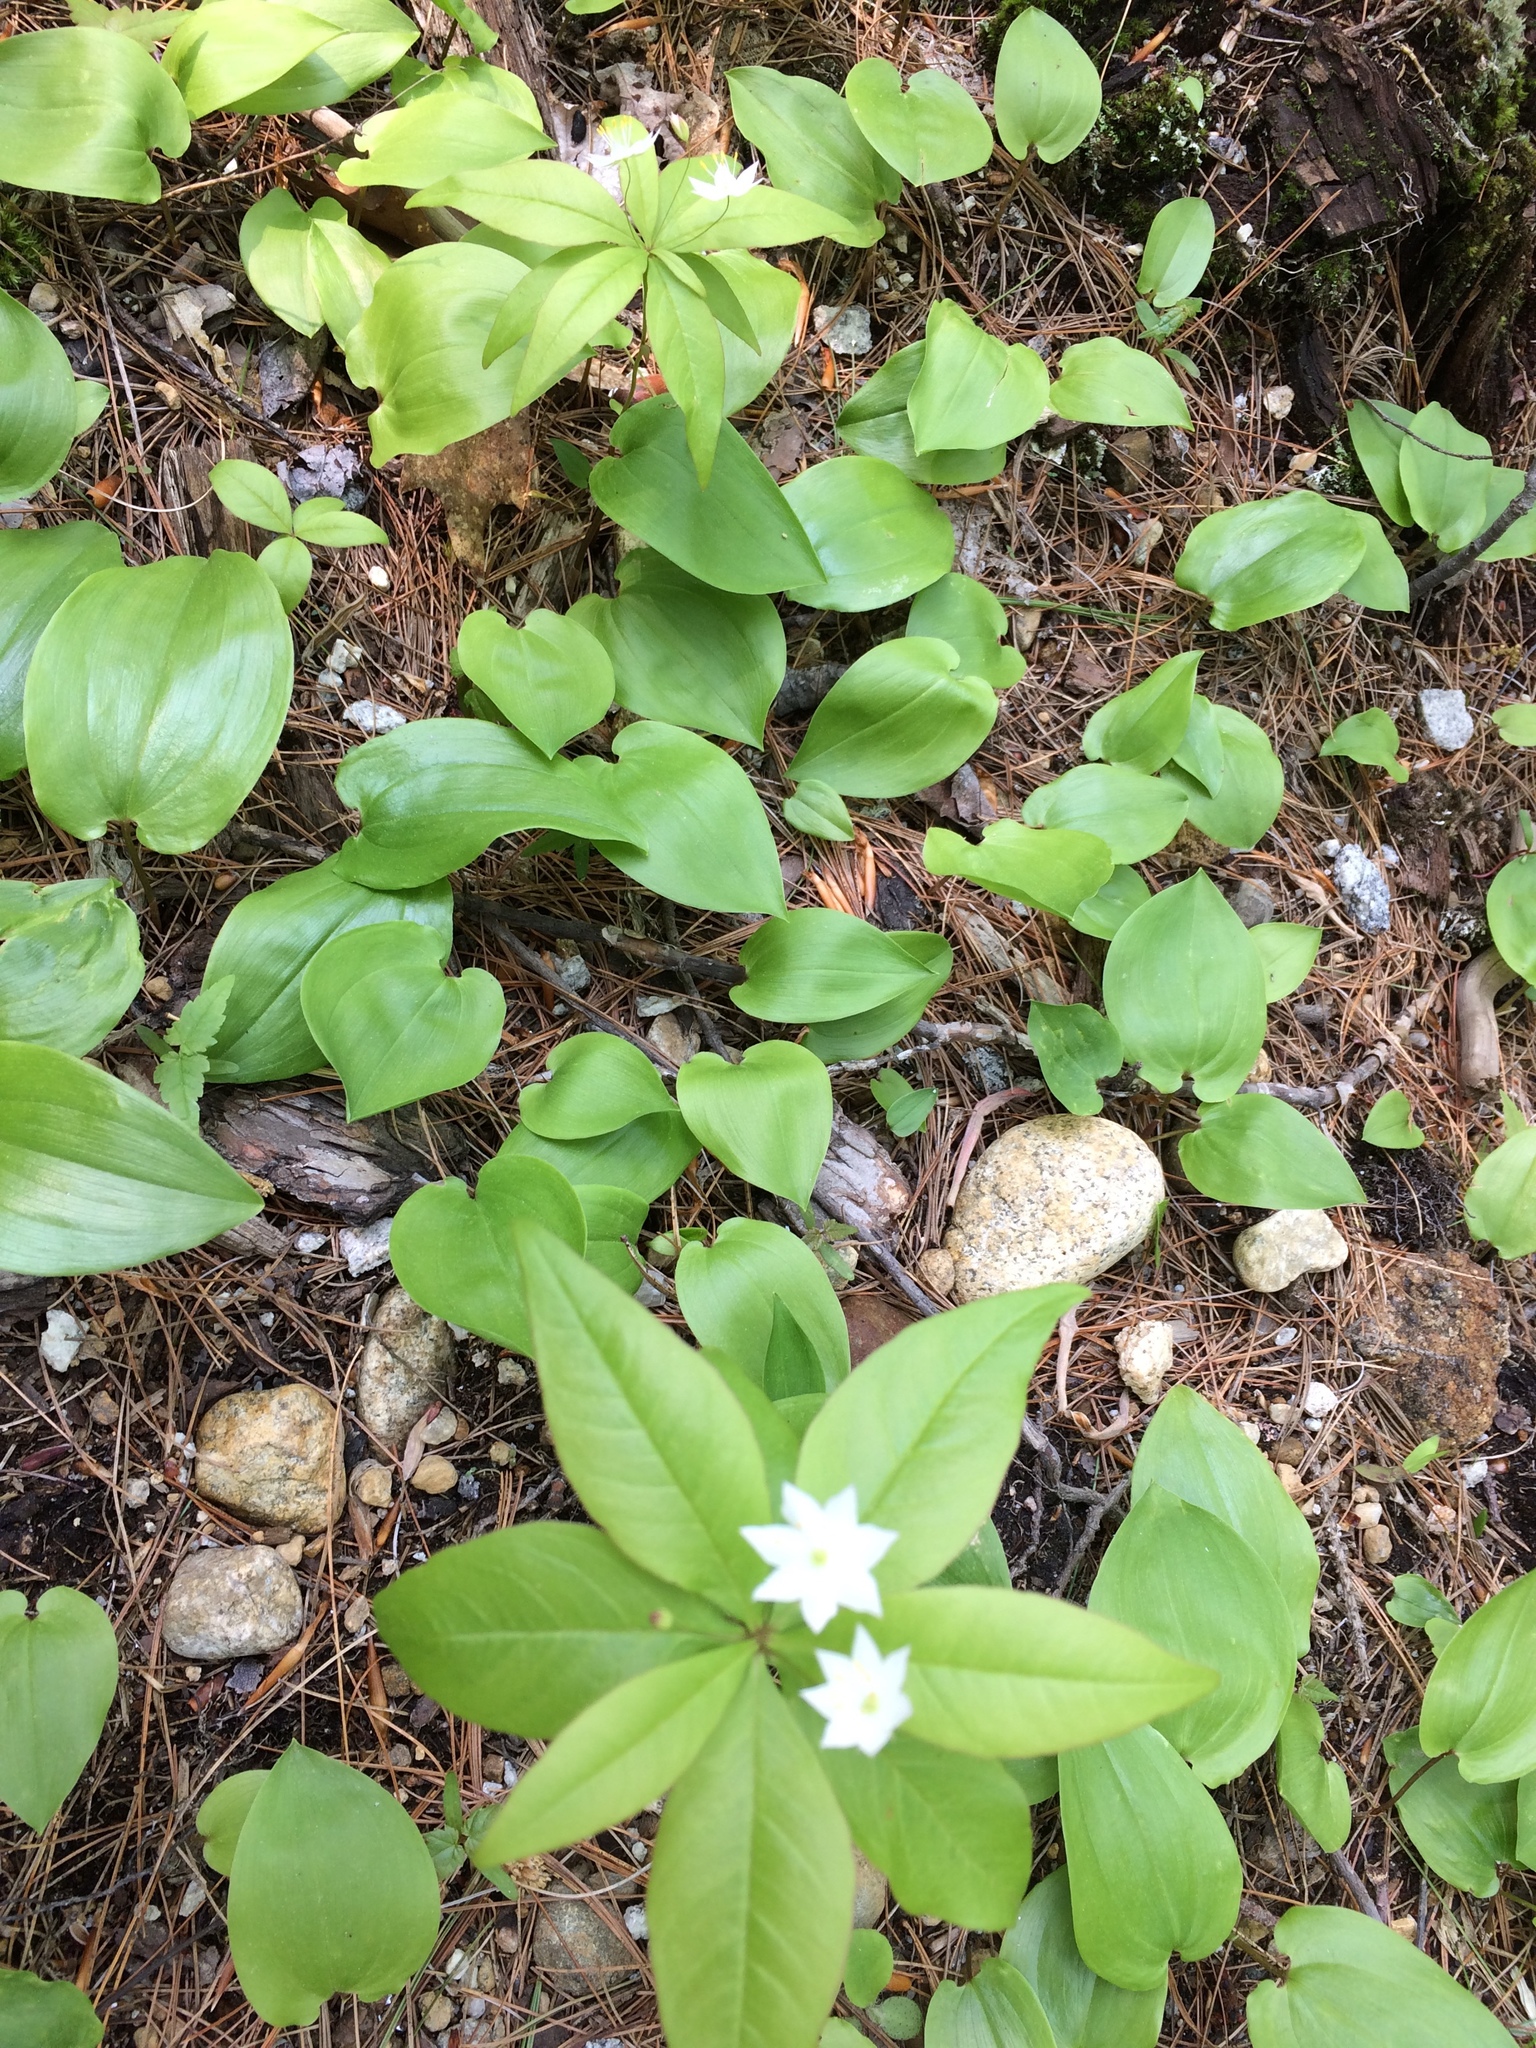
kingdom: Plantae
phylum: Tracheophyta
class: Magnoliopsida
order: Ericales
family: Primulaceae
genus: Lysimachia
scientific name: Lysimachia borealis
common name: American starflower
